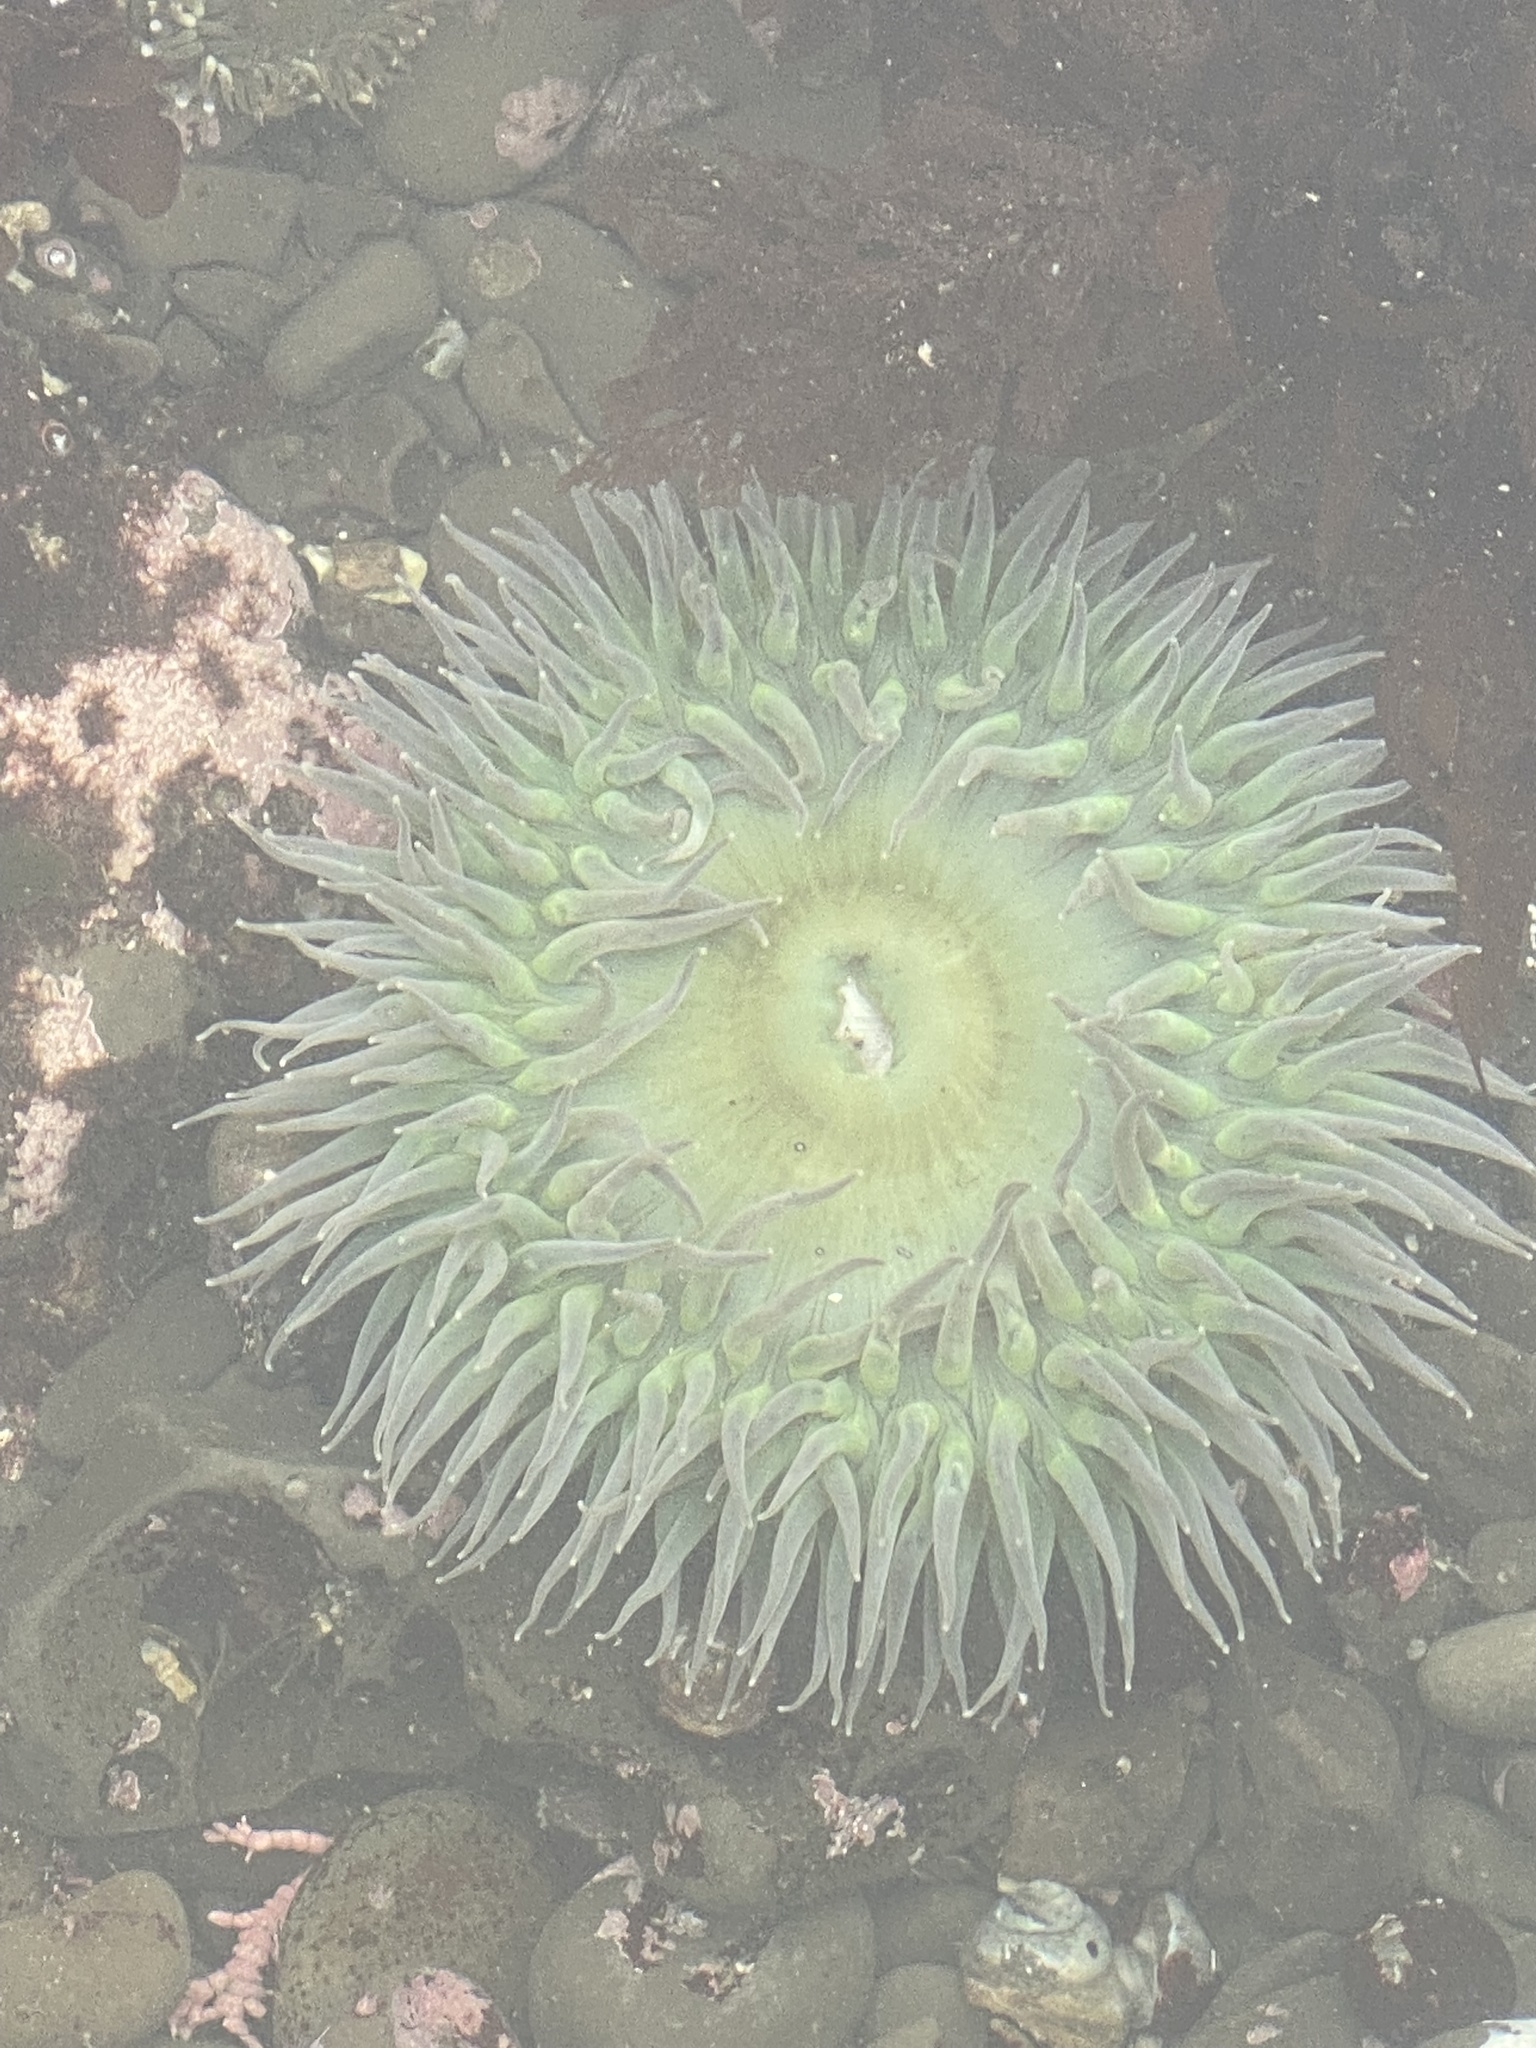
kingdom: Animalia
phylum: Cnidaria
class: Anthozoa
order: Actiniaria
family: Actiniidae
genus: Anthopleura
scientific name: Anthopleura xanthogrammica
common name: Giant green anemone
